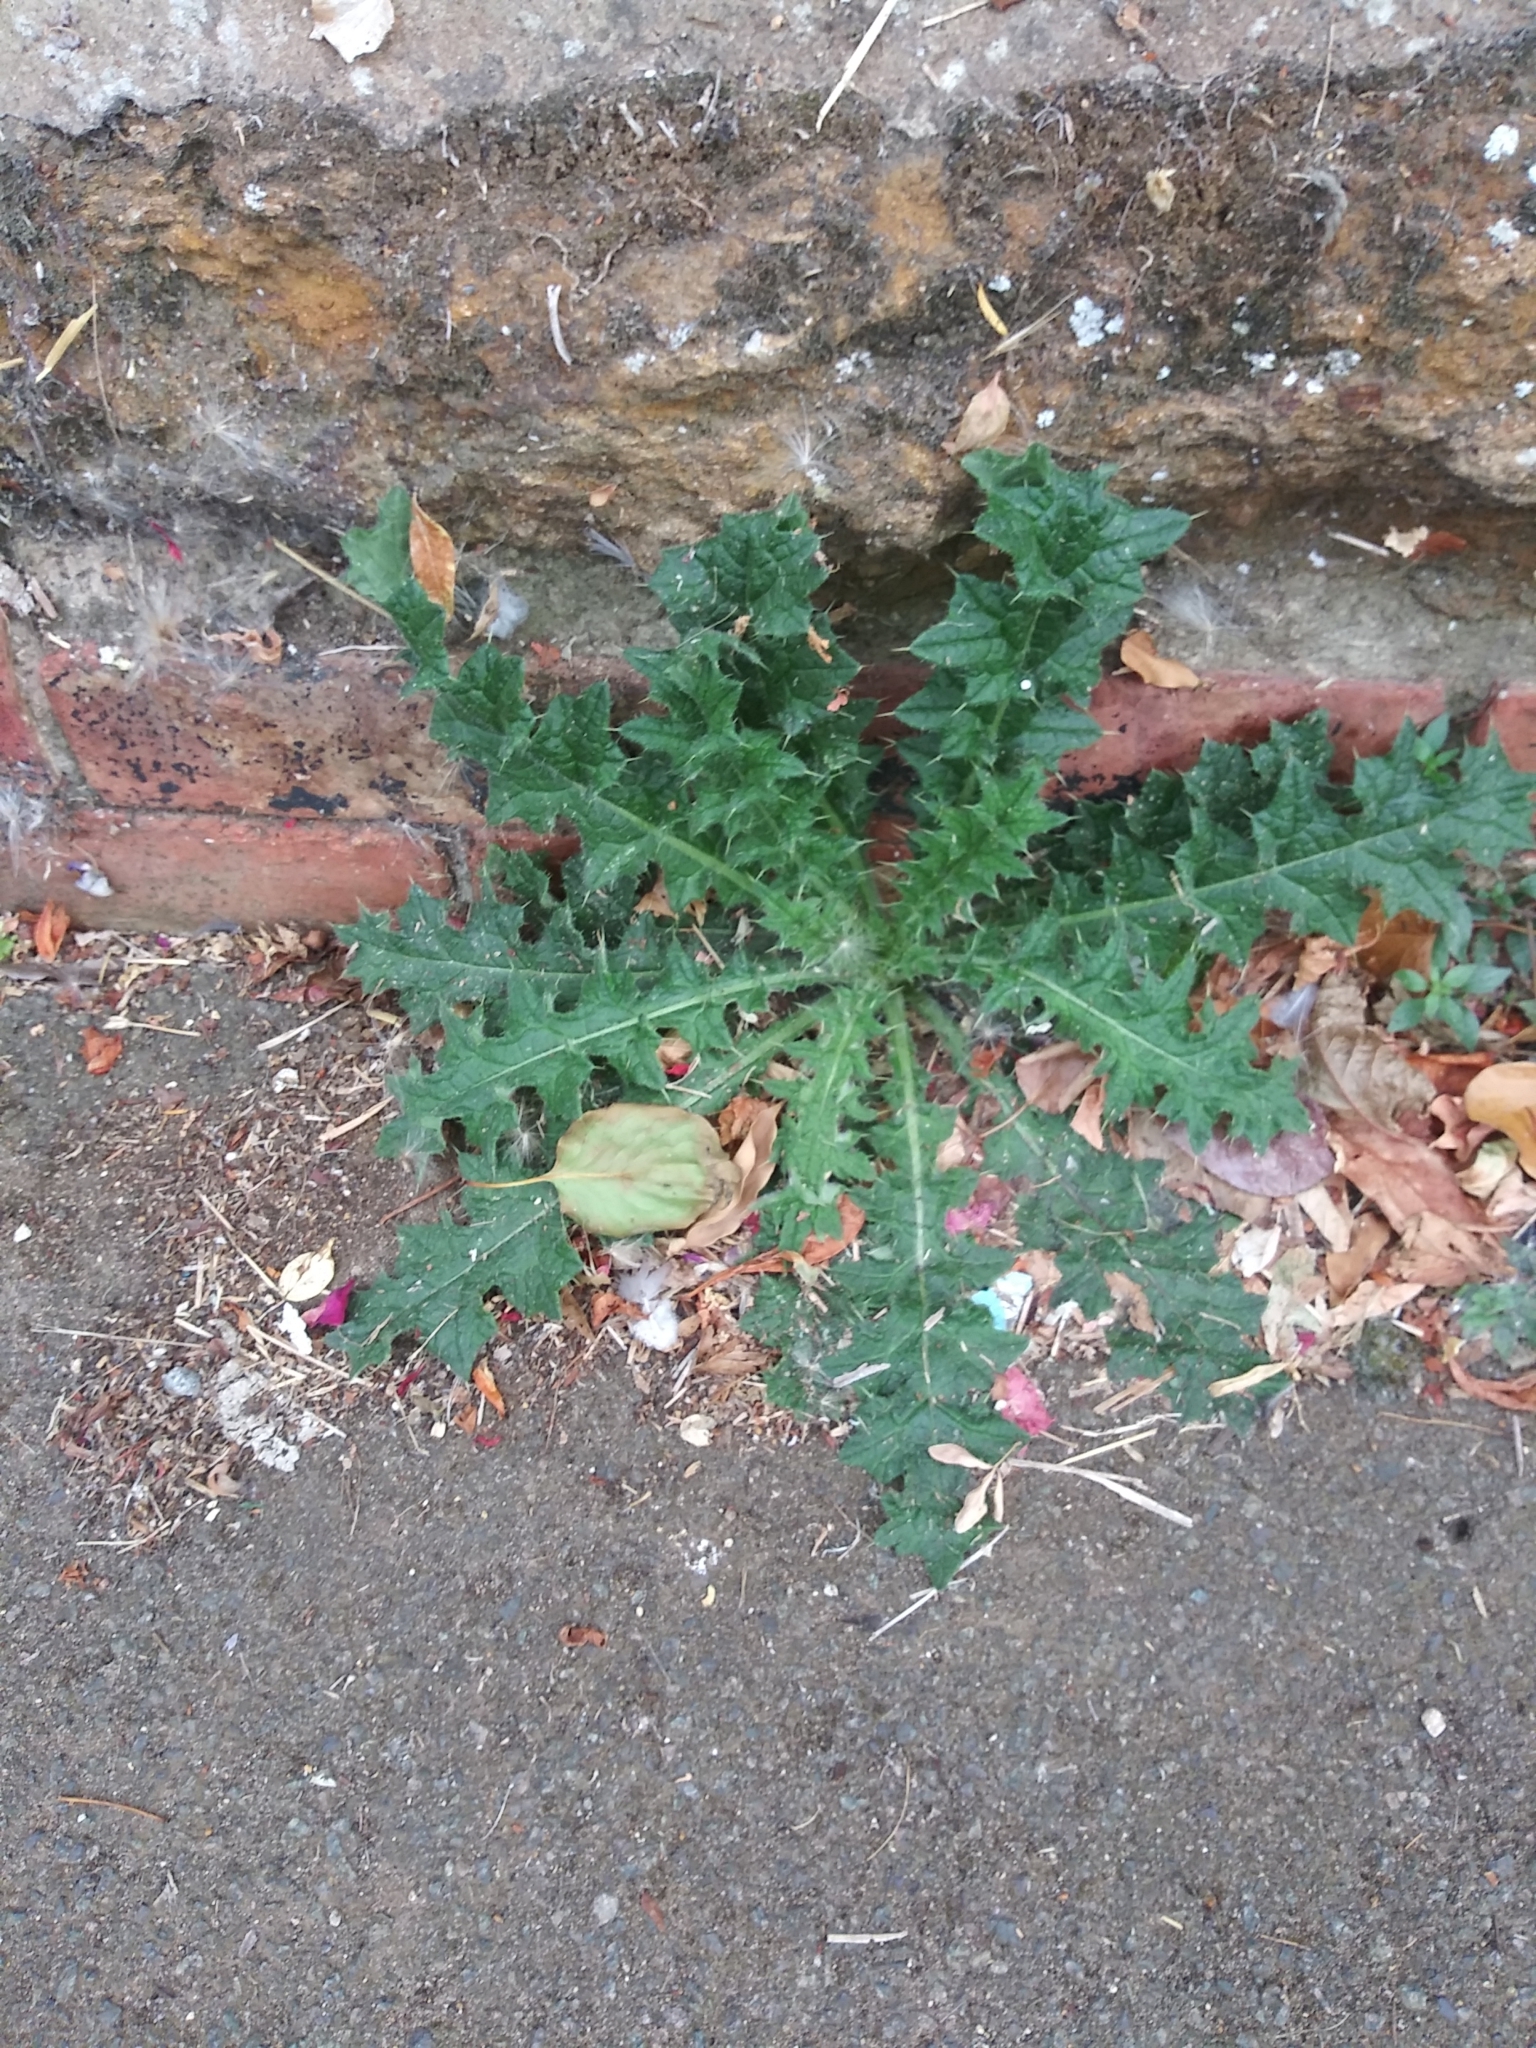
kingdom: Plantae
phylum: Tracheophyta
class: Magnoliopsida
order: Asterales
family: Asteraceae
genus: Cirsium
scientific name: Cirsium vulgare
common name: Bull thistle
